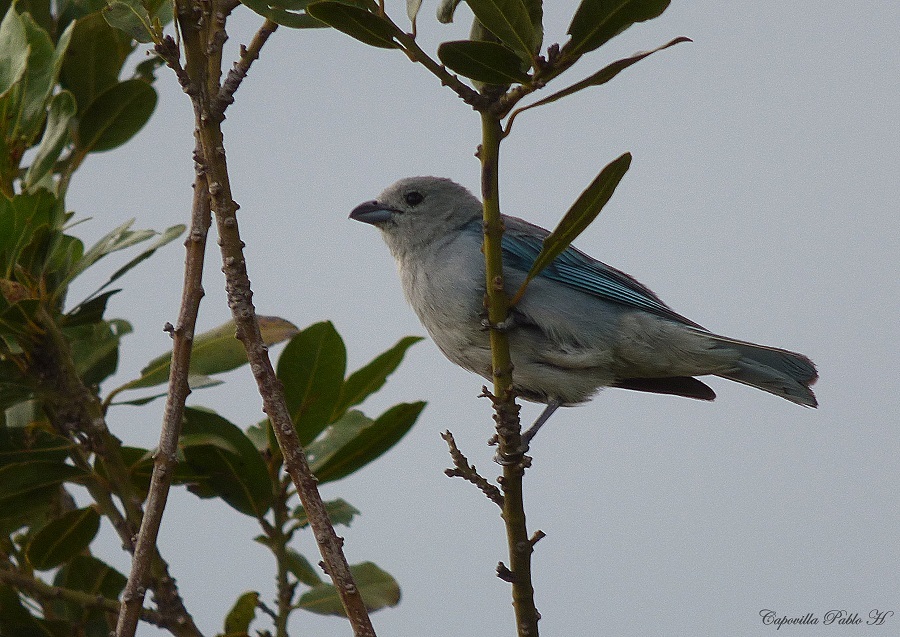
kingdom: Animalia
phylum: Chordata
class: Aves
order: Passeriformes
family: Thraupidae
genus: Thraupis
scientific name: Thraupis sayaca
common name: Sayaca tanager
